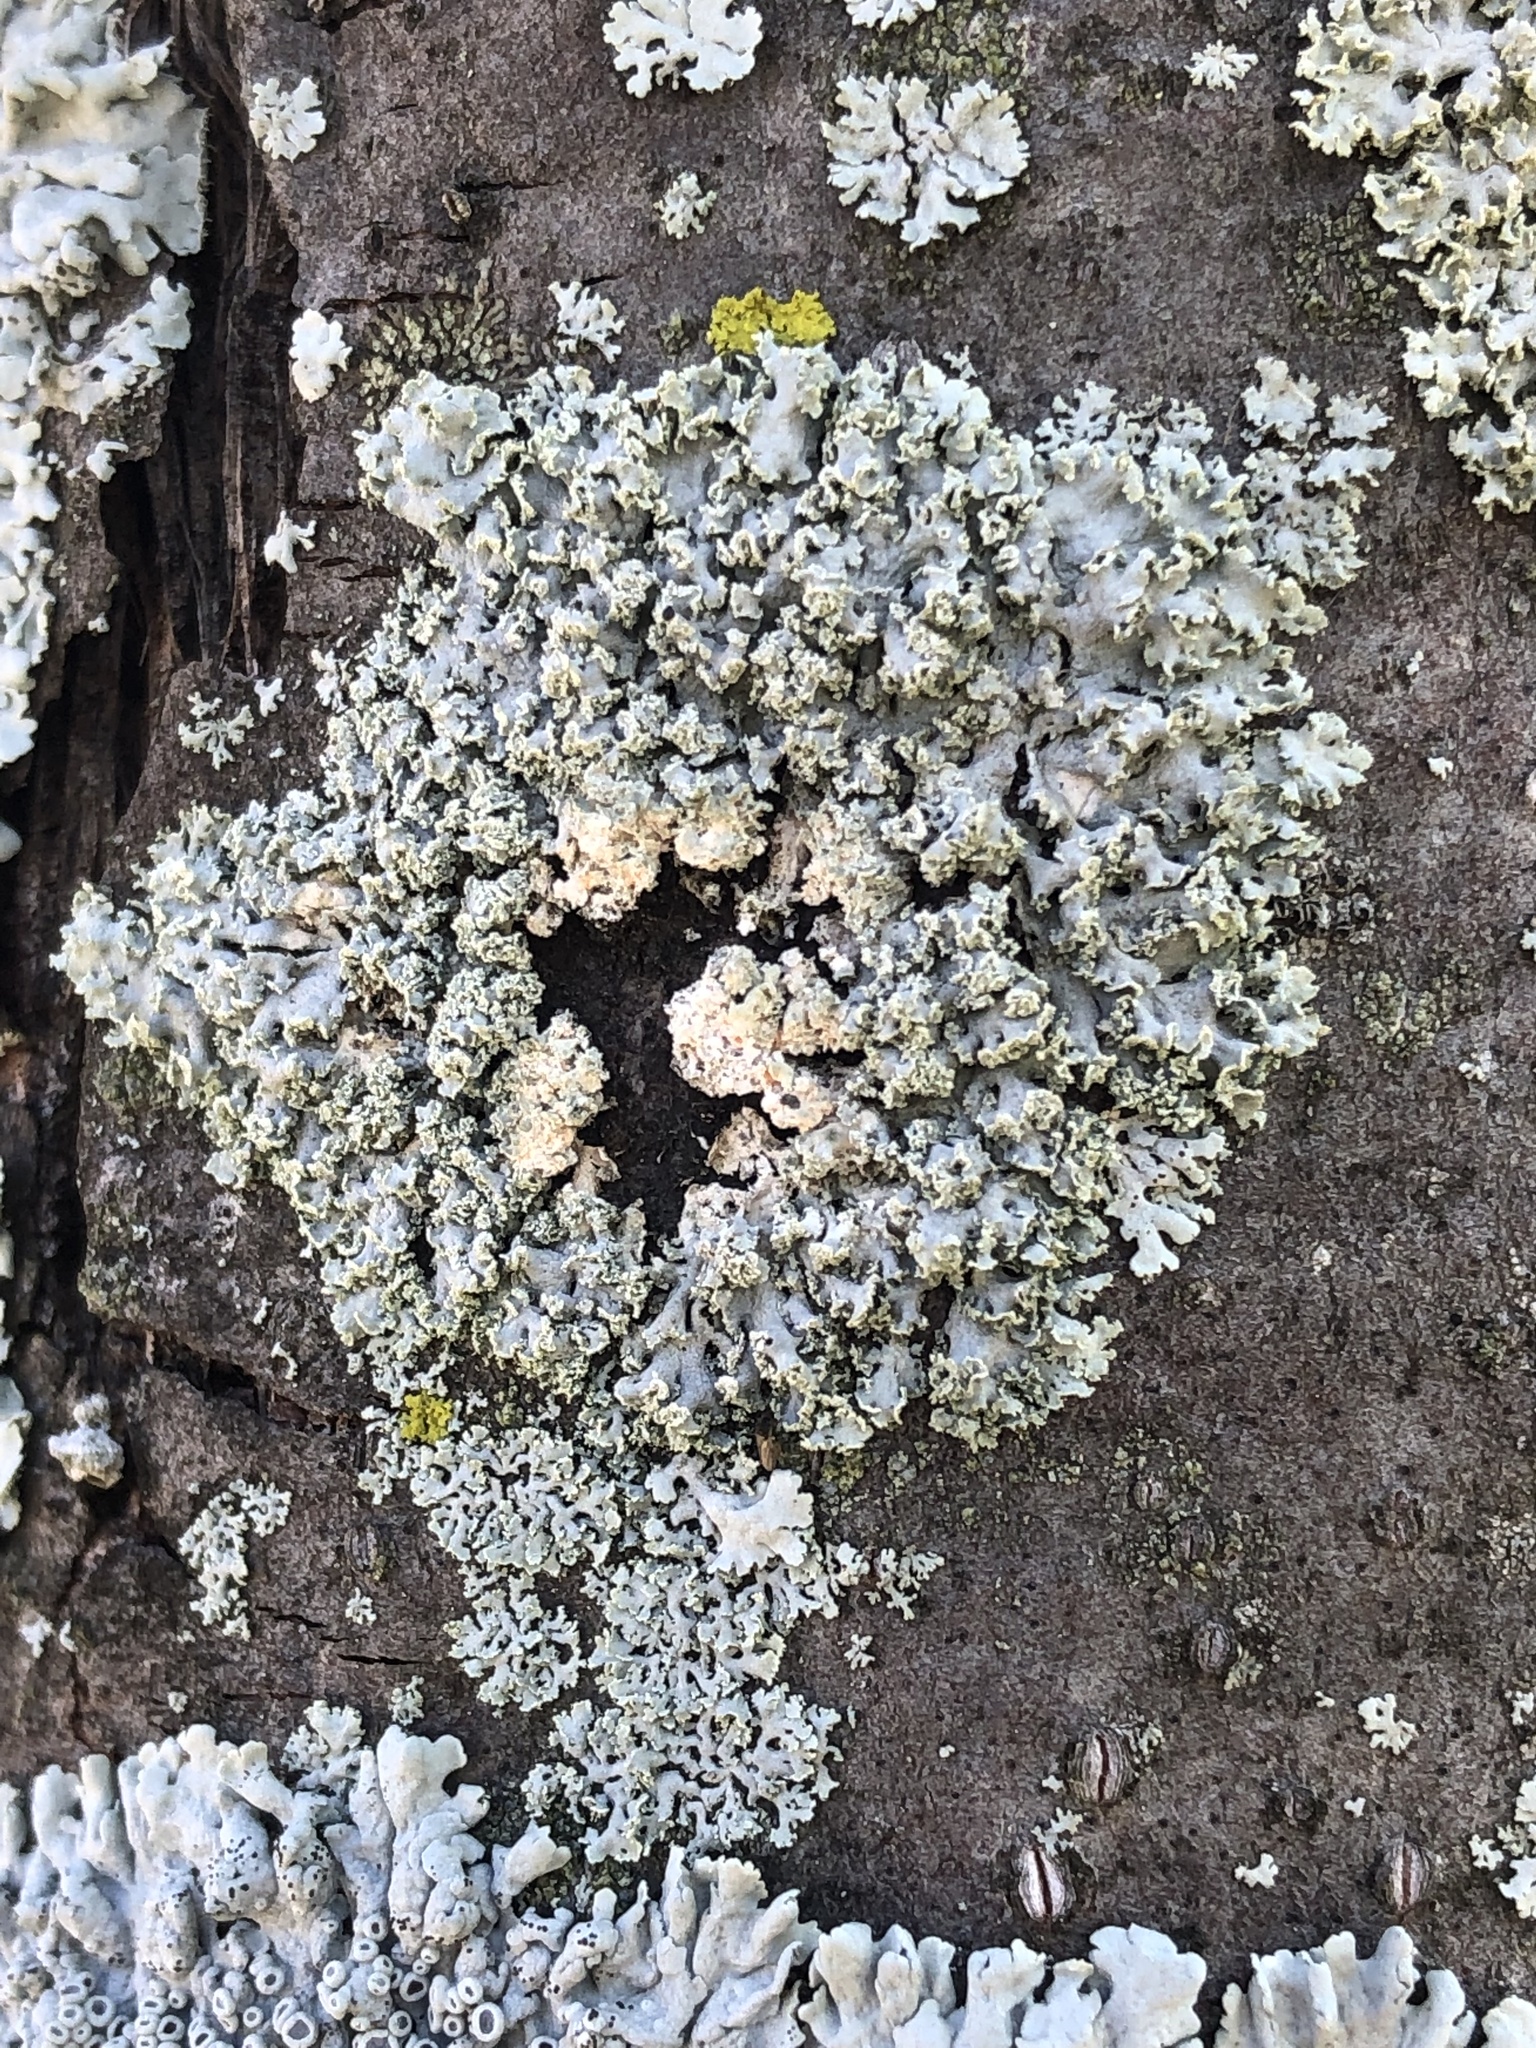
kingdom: Fungi
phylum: Ascomycota
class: Lecanoromycetes
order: Caliciales
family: Physciaceae
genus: Physcia
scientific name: Physcia millegrana
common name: Rosette lichen
